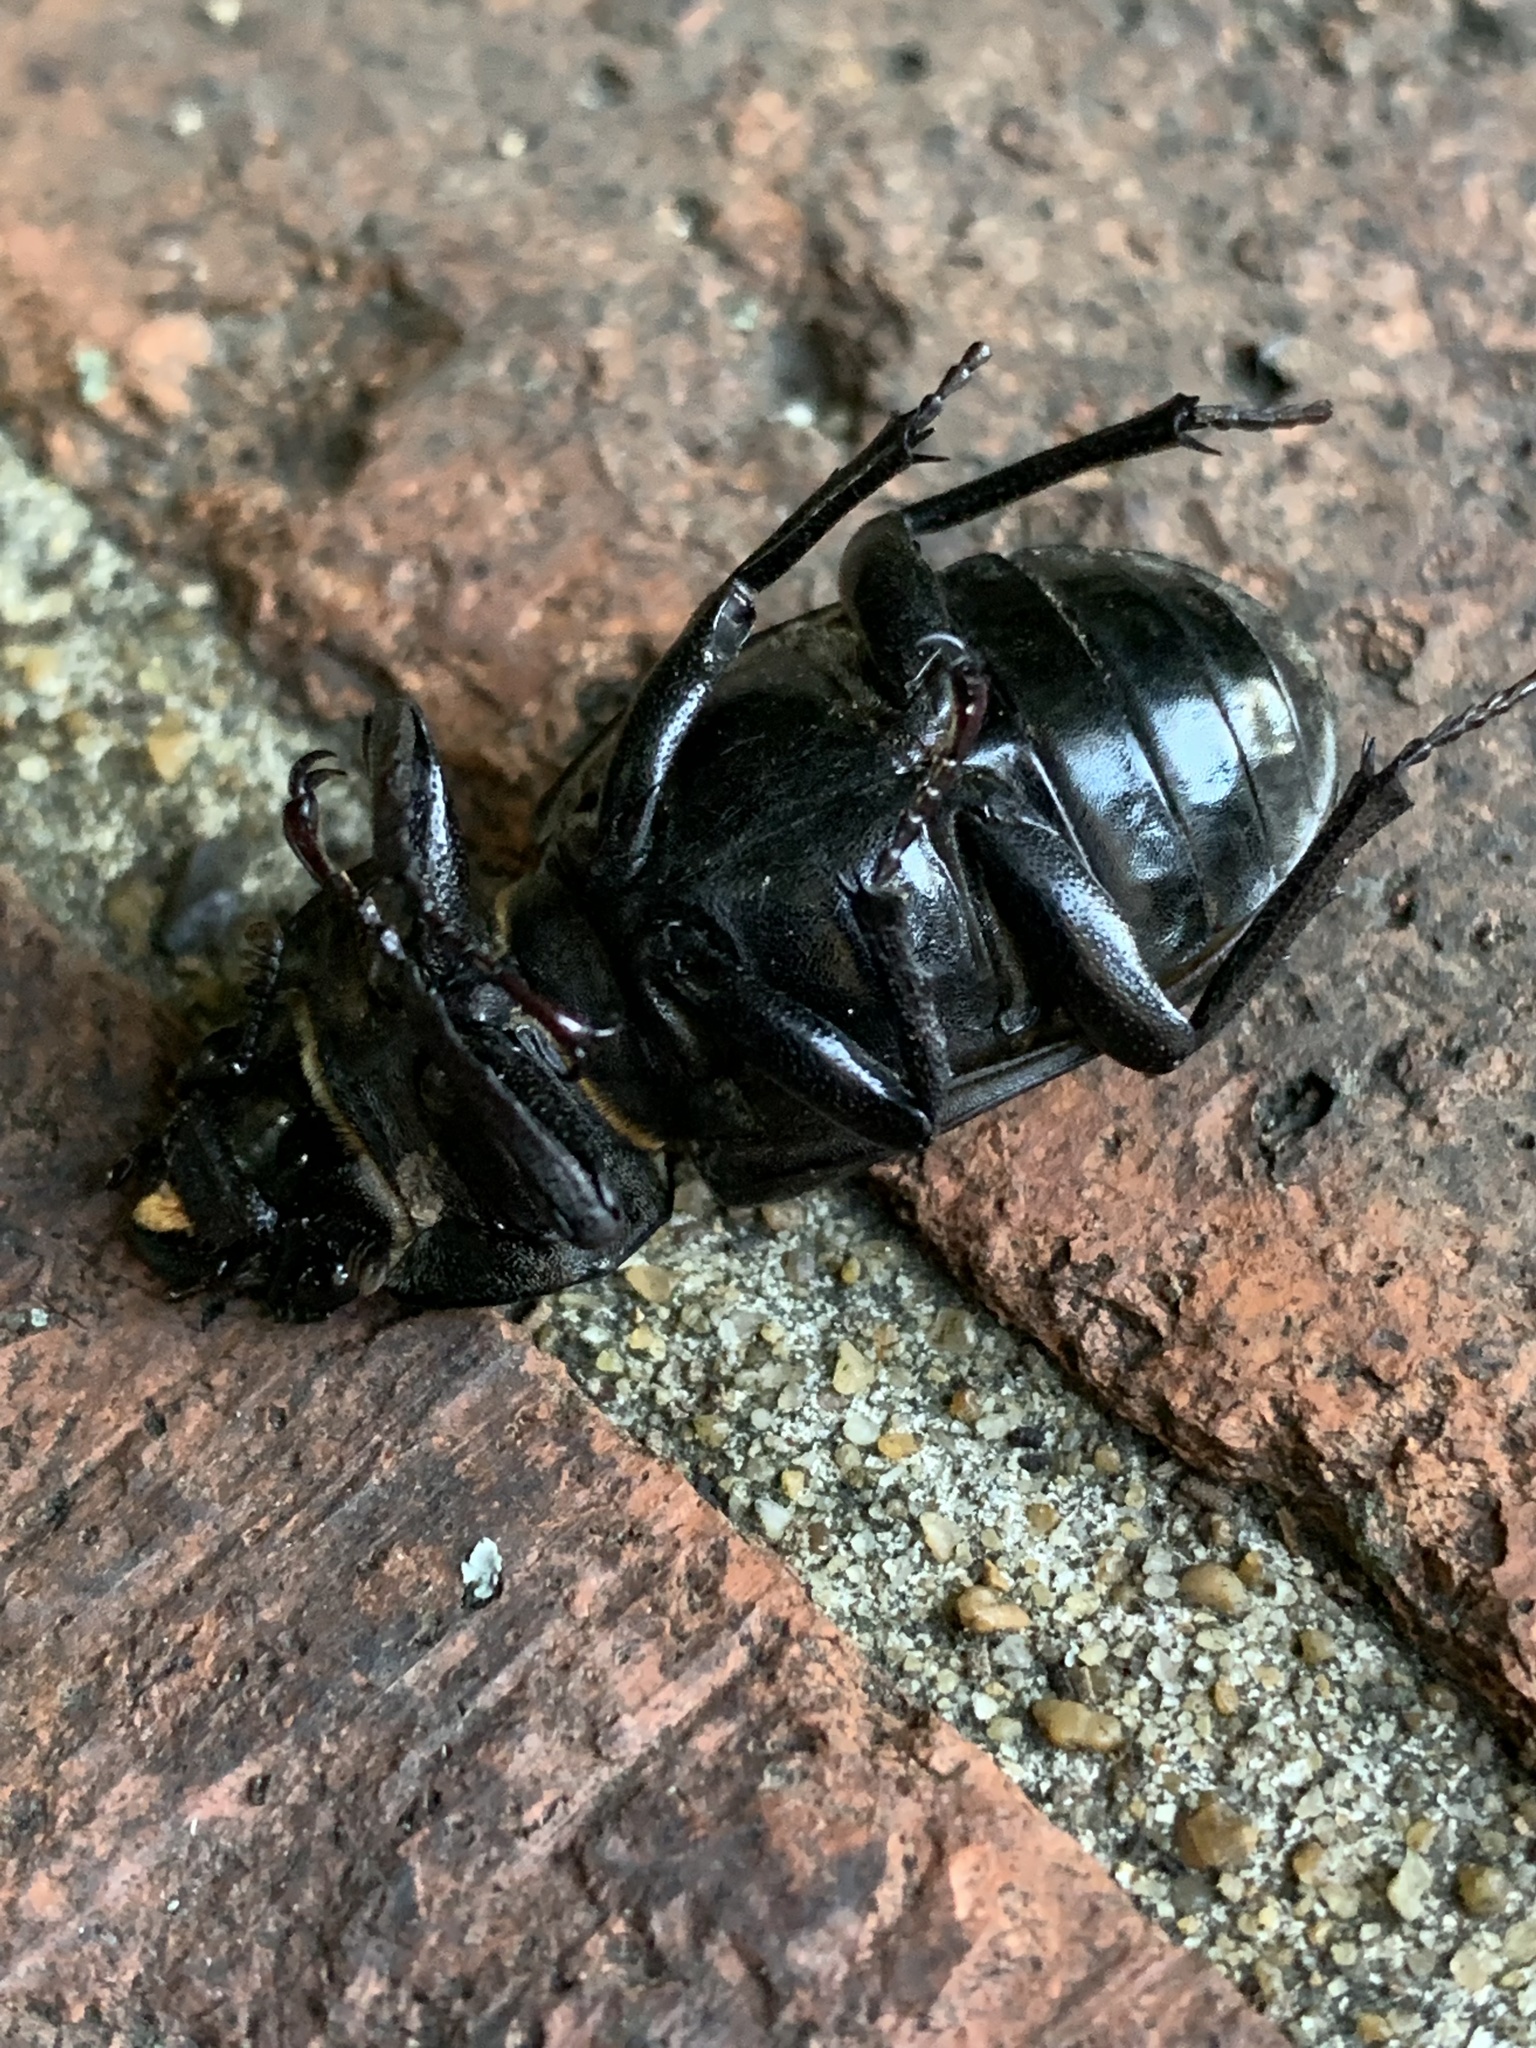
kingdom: Animalia
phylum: Arthropoda
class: Insecta
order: Coleoptera
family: Lucanidae
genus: Lucanus
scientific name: Lucanus cervus
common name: Stag beetle
